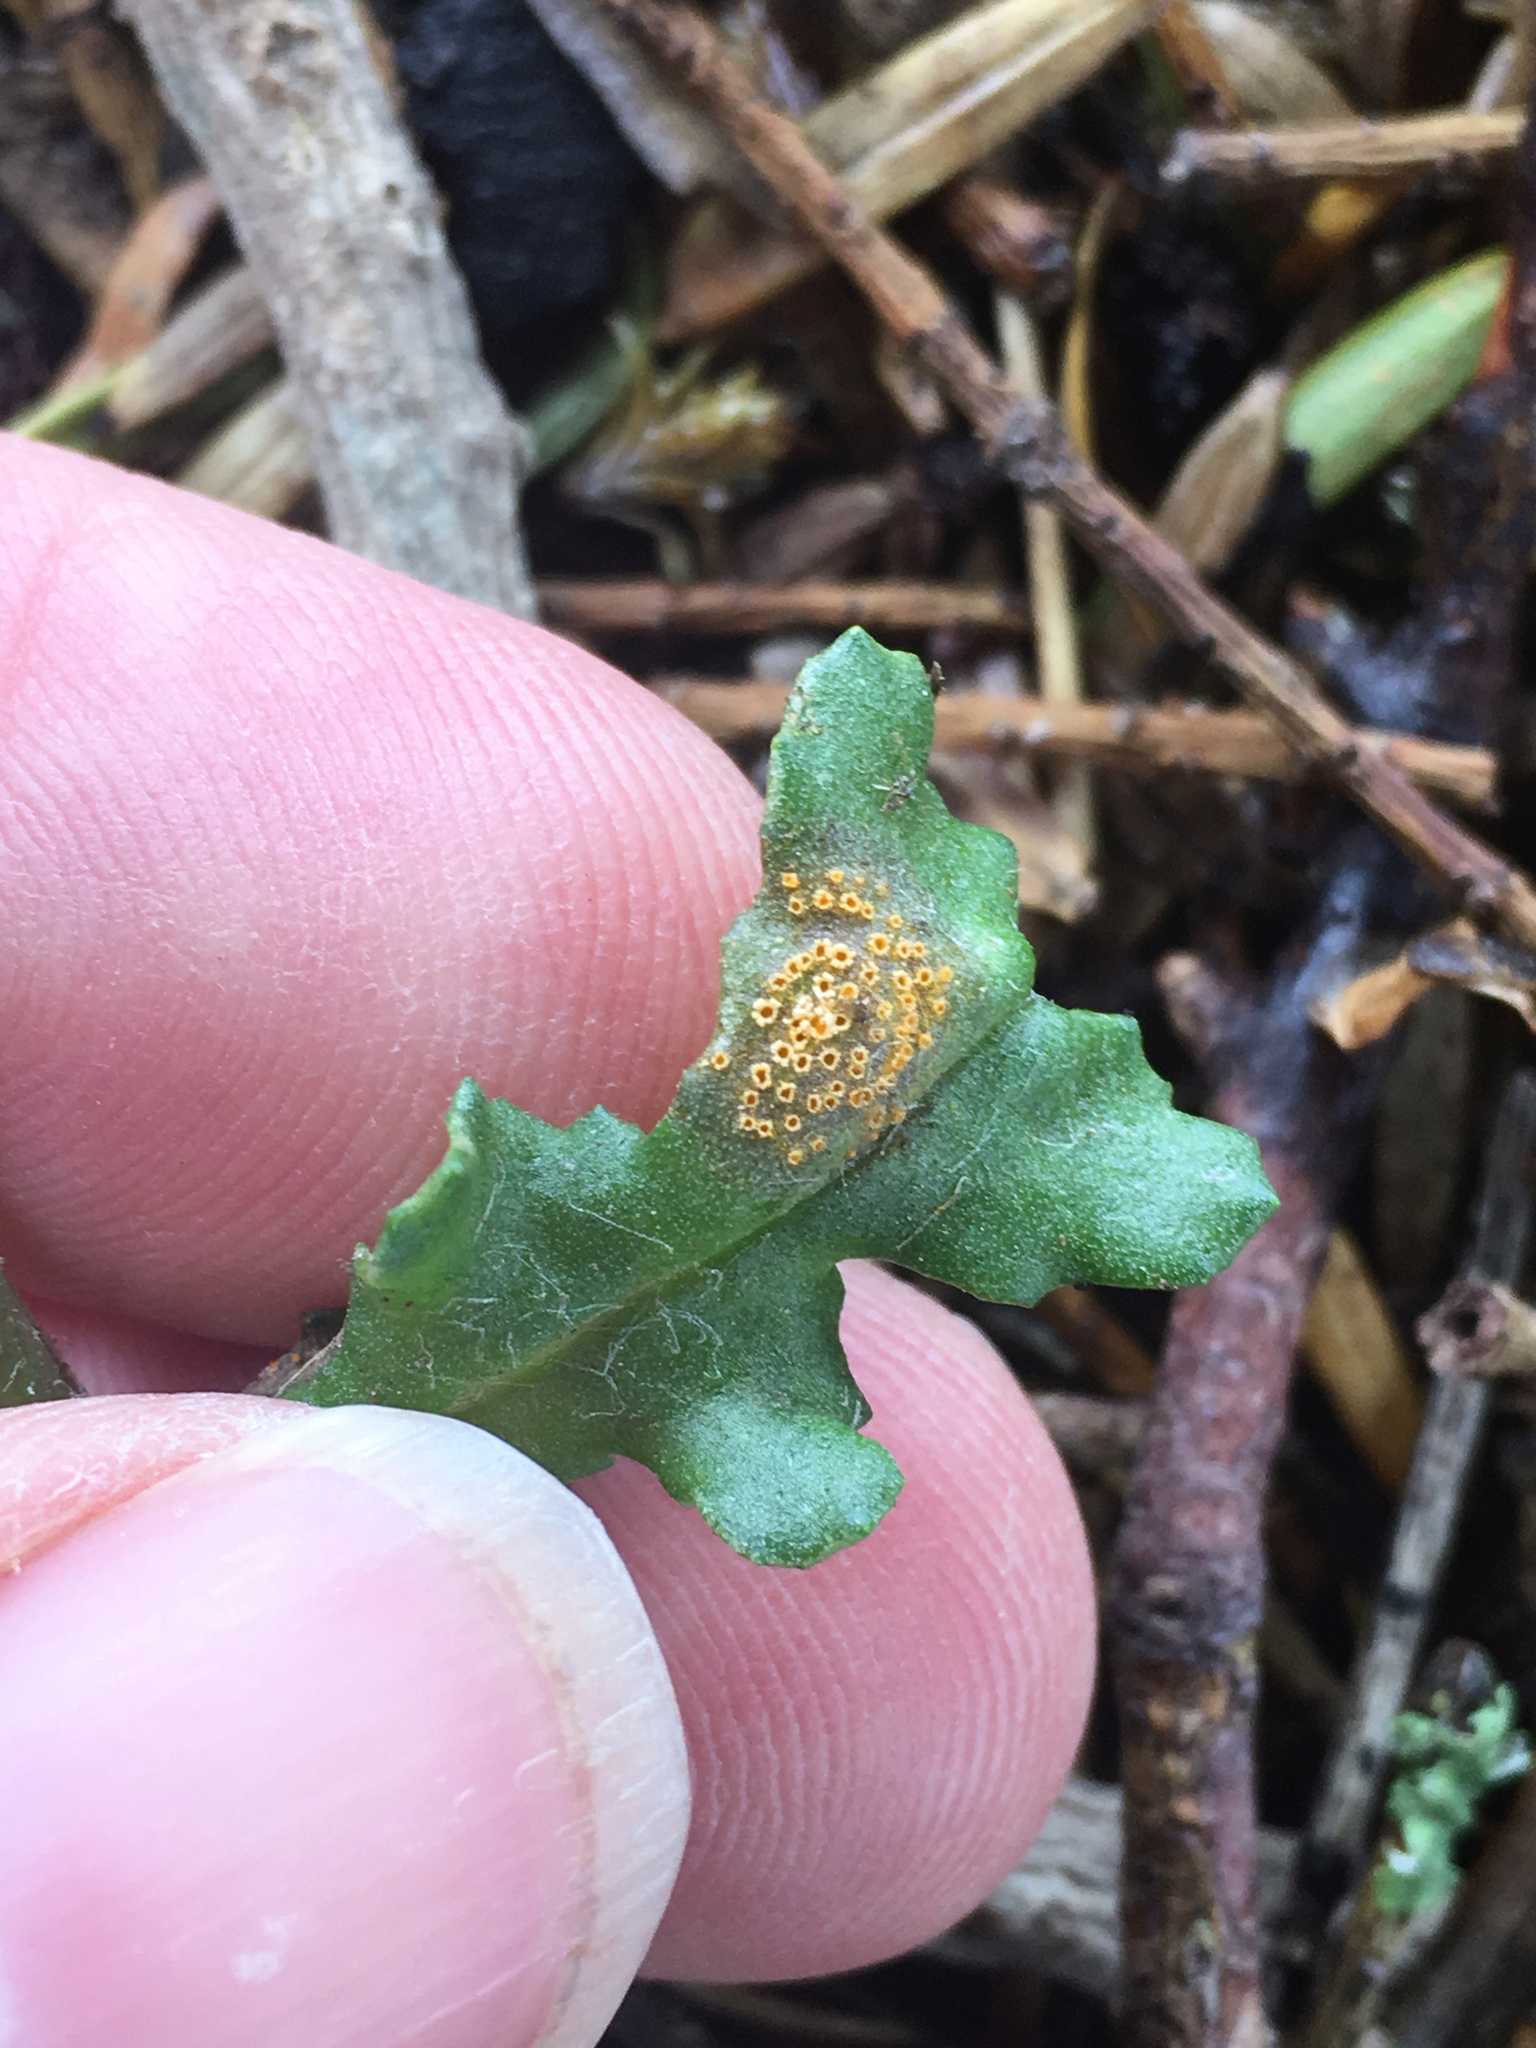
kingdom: Fungi
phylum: Basidiomycota
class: Pucciniomycetes
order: Pucciniales
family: Pucciniaceae
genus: Puccinia
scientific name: Puccinia lagenophorae
